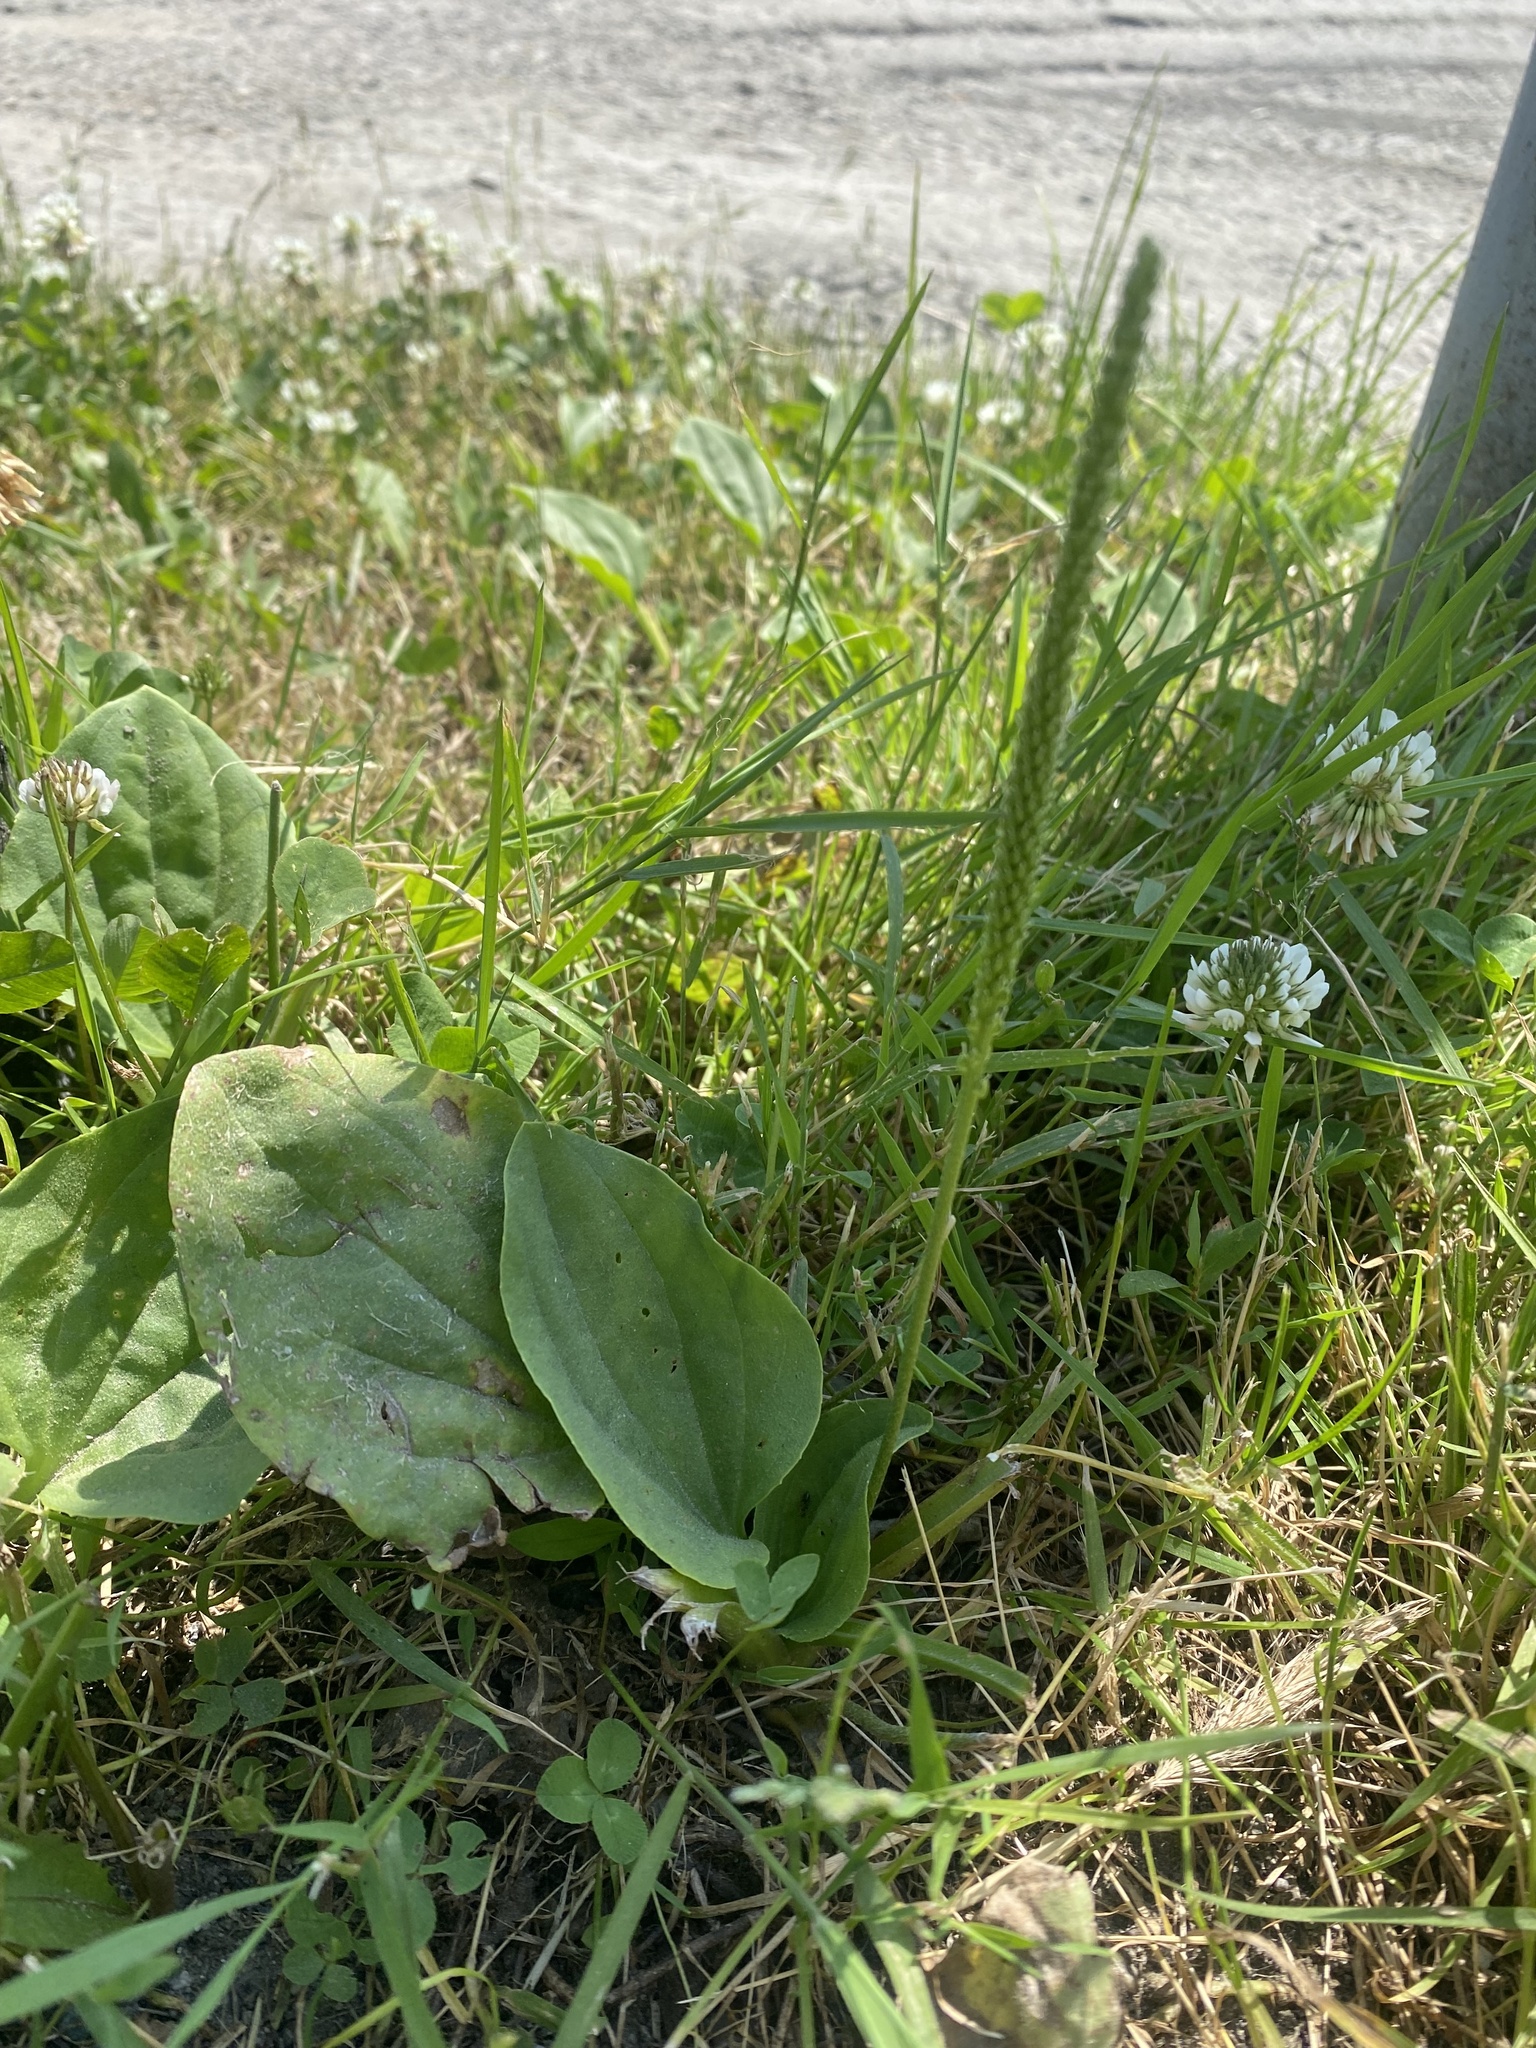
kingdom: Plantae
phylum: Tracheophyta
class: Magnoliopsida
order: Lamiales
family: Plantaginaceae
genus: Plantago
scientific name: Plantago major
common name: Common plantain
